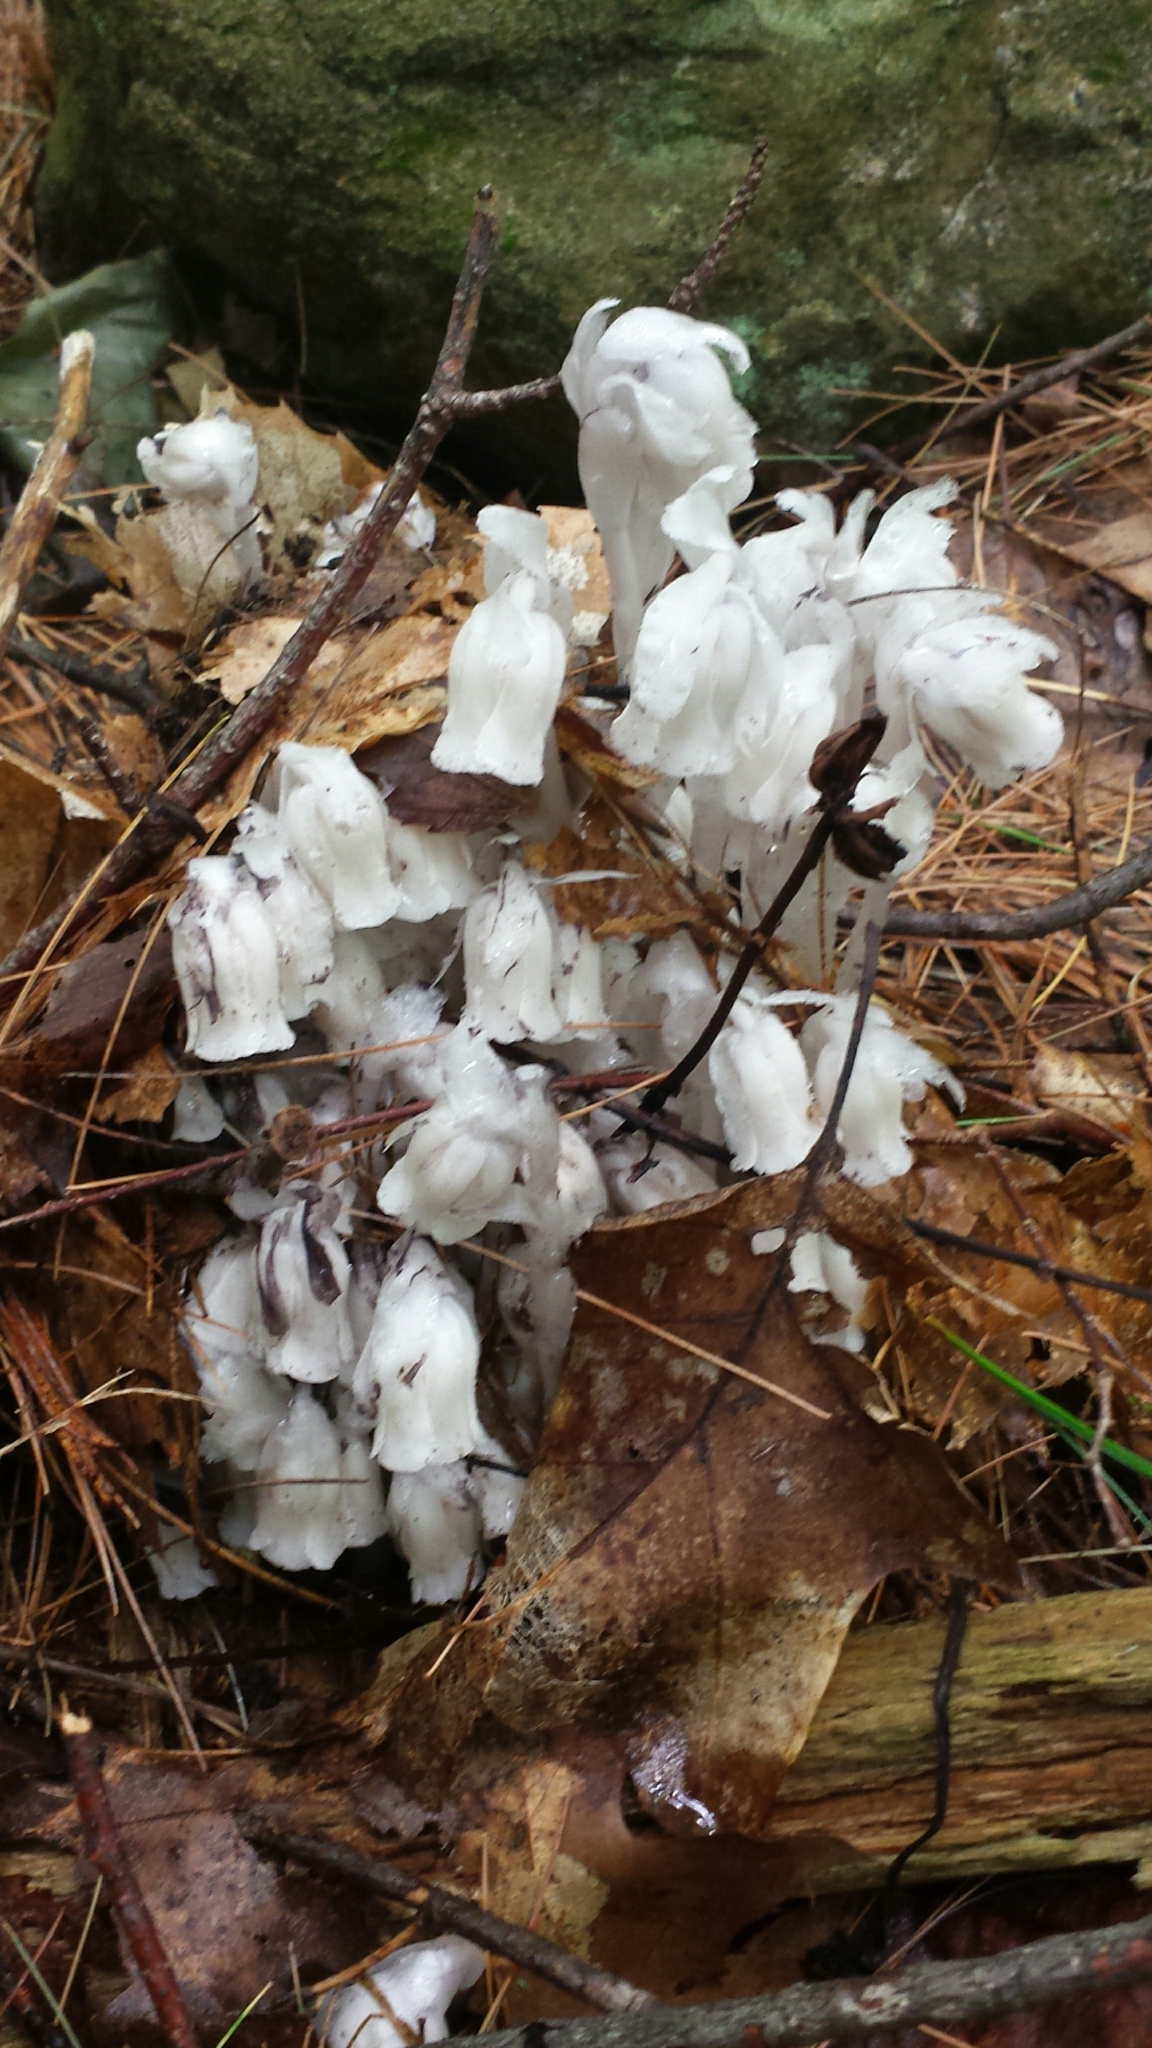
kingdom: Plantae
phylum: Tracheophyta
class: Magnoliopsida
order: Ericales
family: Ericaceae
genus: Monotropa
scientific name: Monotropa uniflora
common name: Convulsion root
